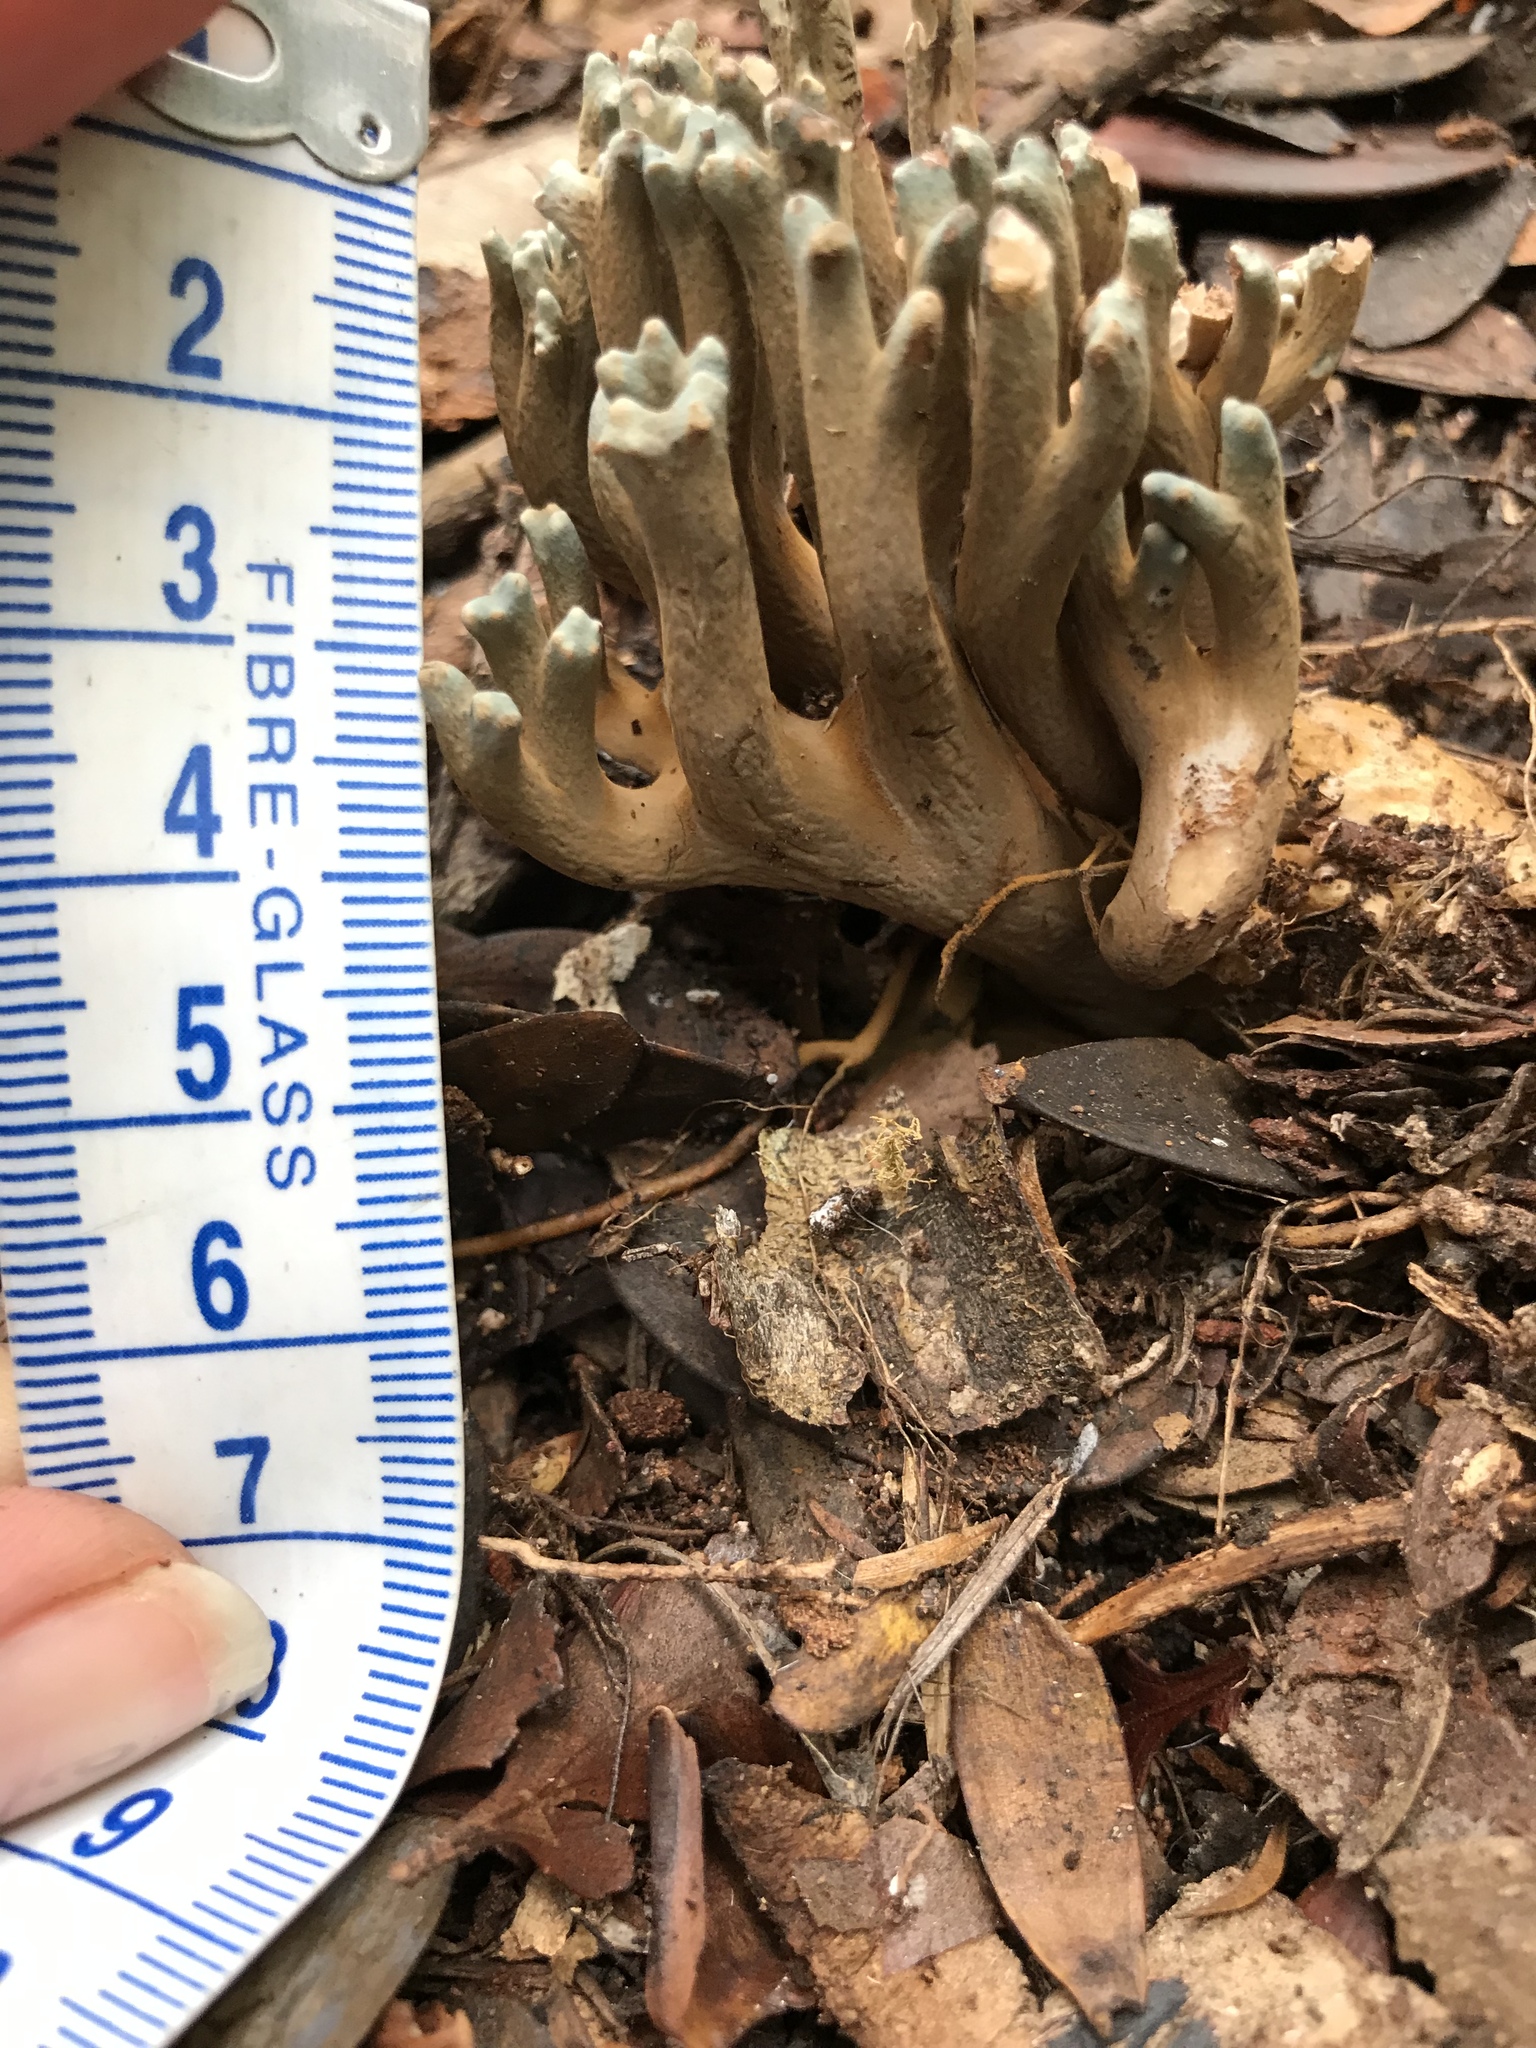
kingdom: Fungi
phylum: Basidiomycota
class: Agaricomycetes
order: Gomphales
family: Gomphaceae
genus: Phaeoclavulina
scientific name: Phaeoclavulina zippelii
